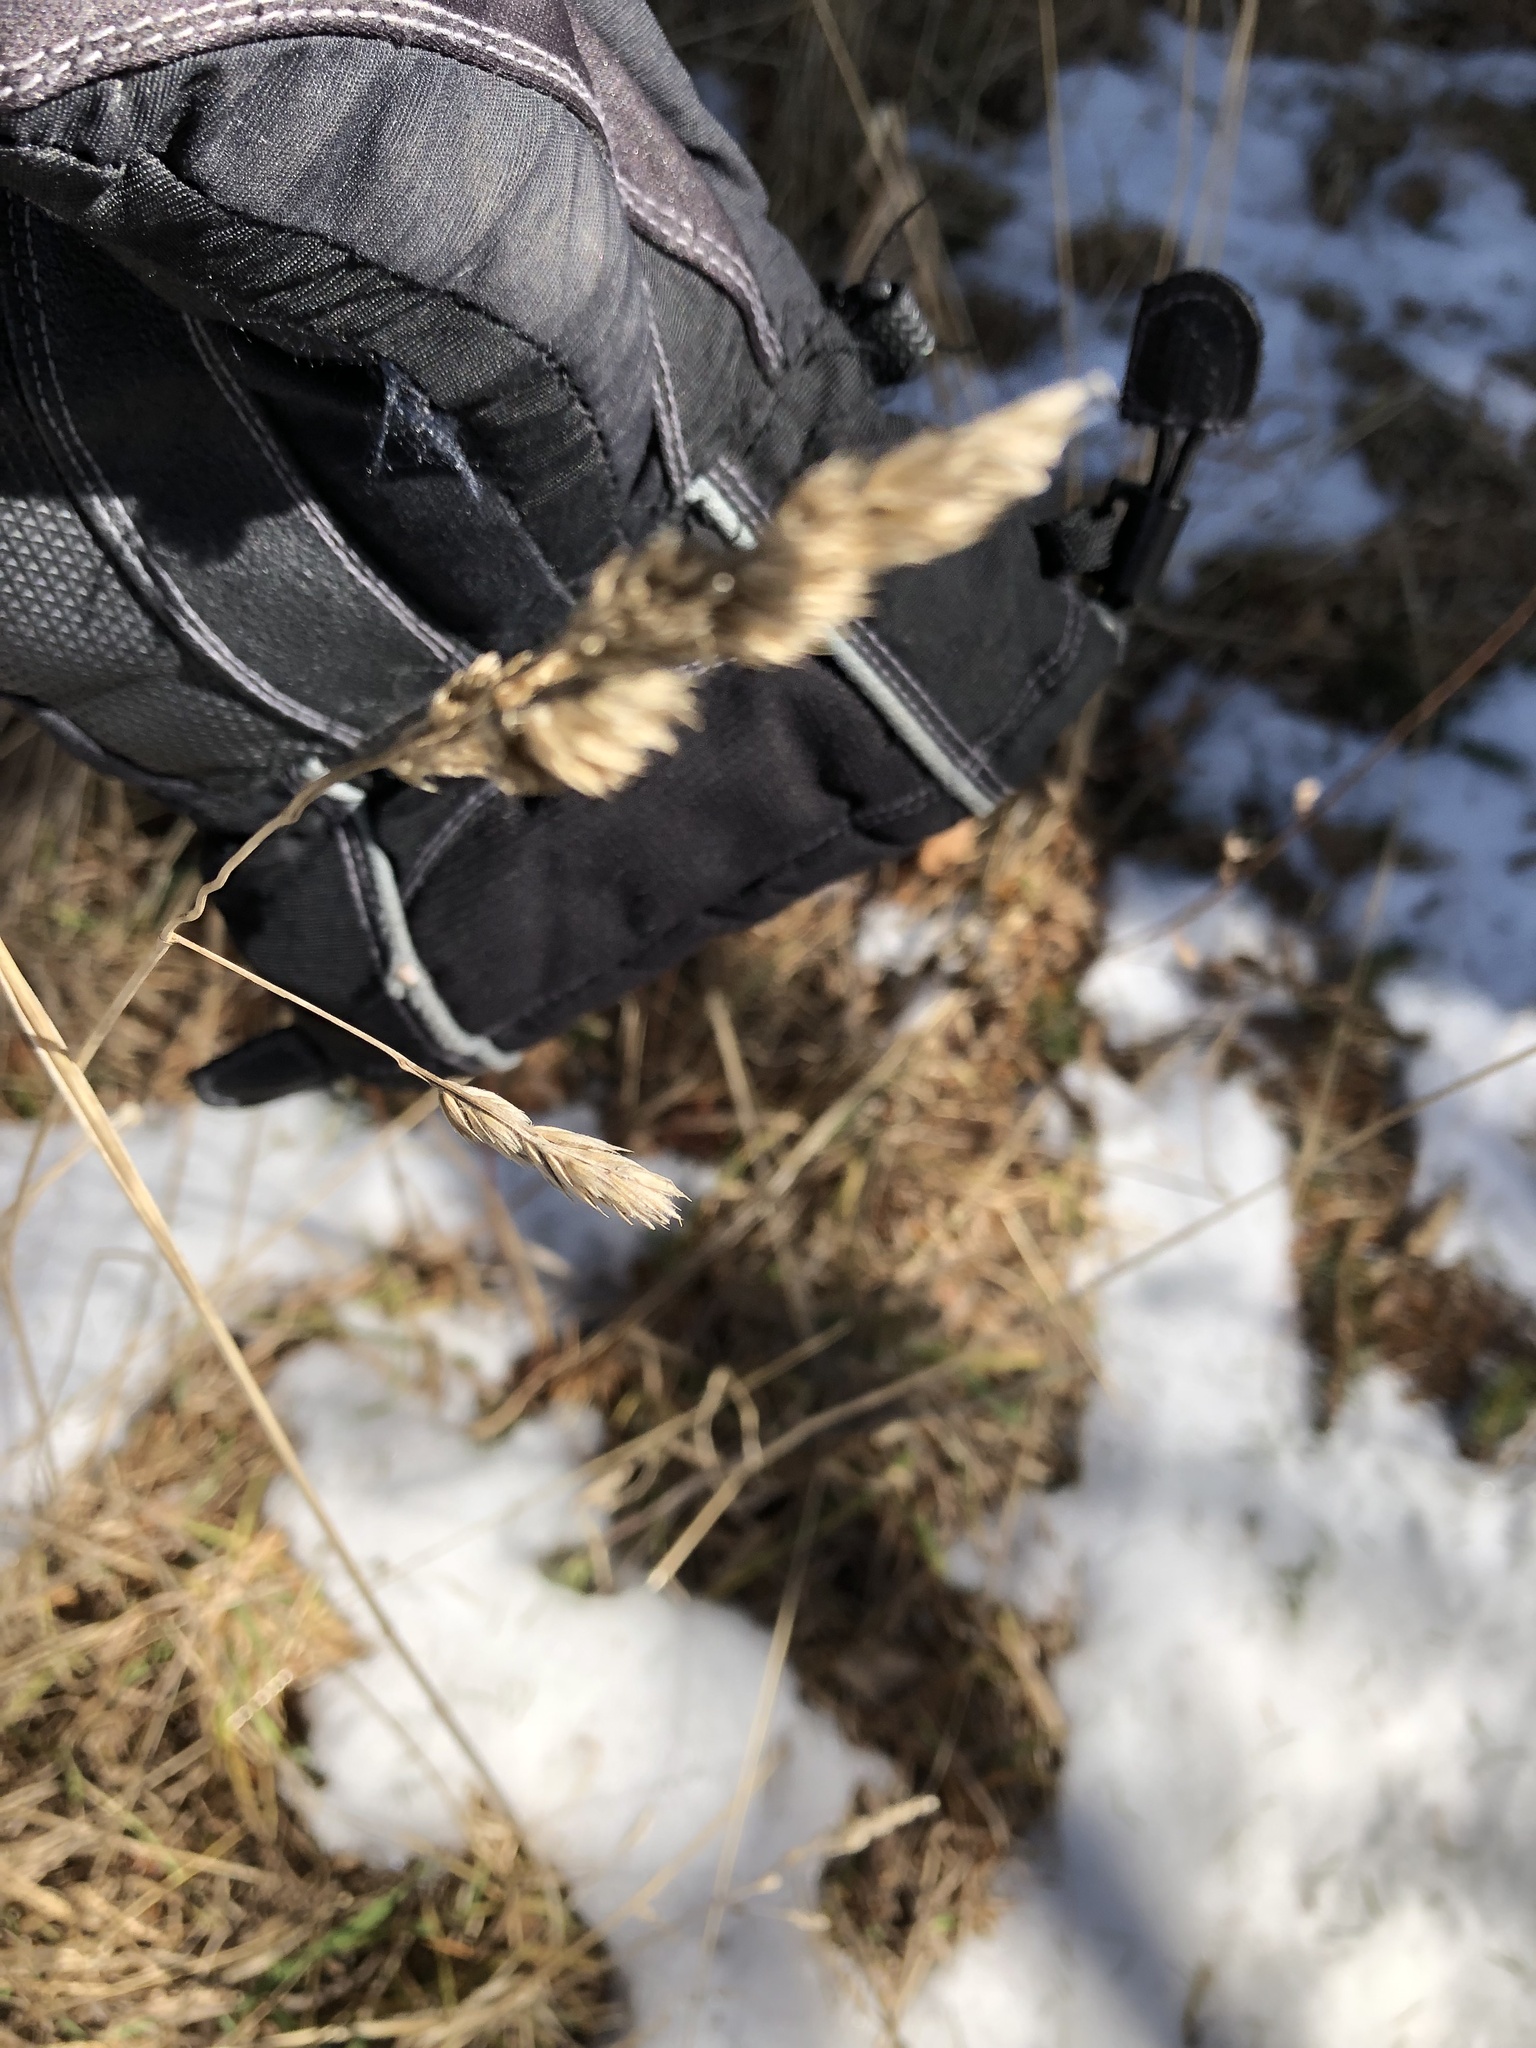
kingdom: Plantae
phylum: Tracheophyta
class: Liliopsida
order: Poales
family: Poaceae
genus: Dactylis
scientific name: Dactylis glomerata
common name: Orchardgrass
